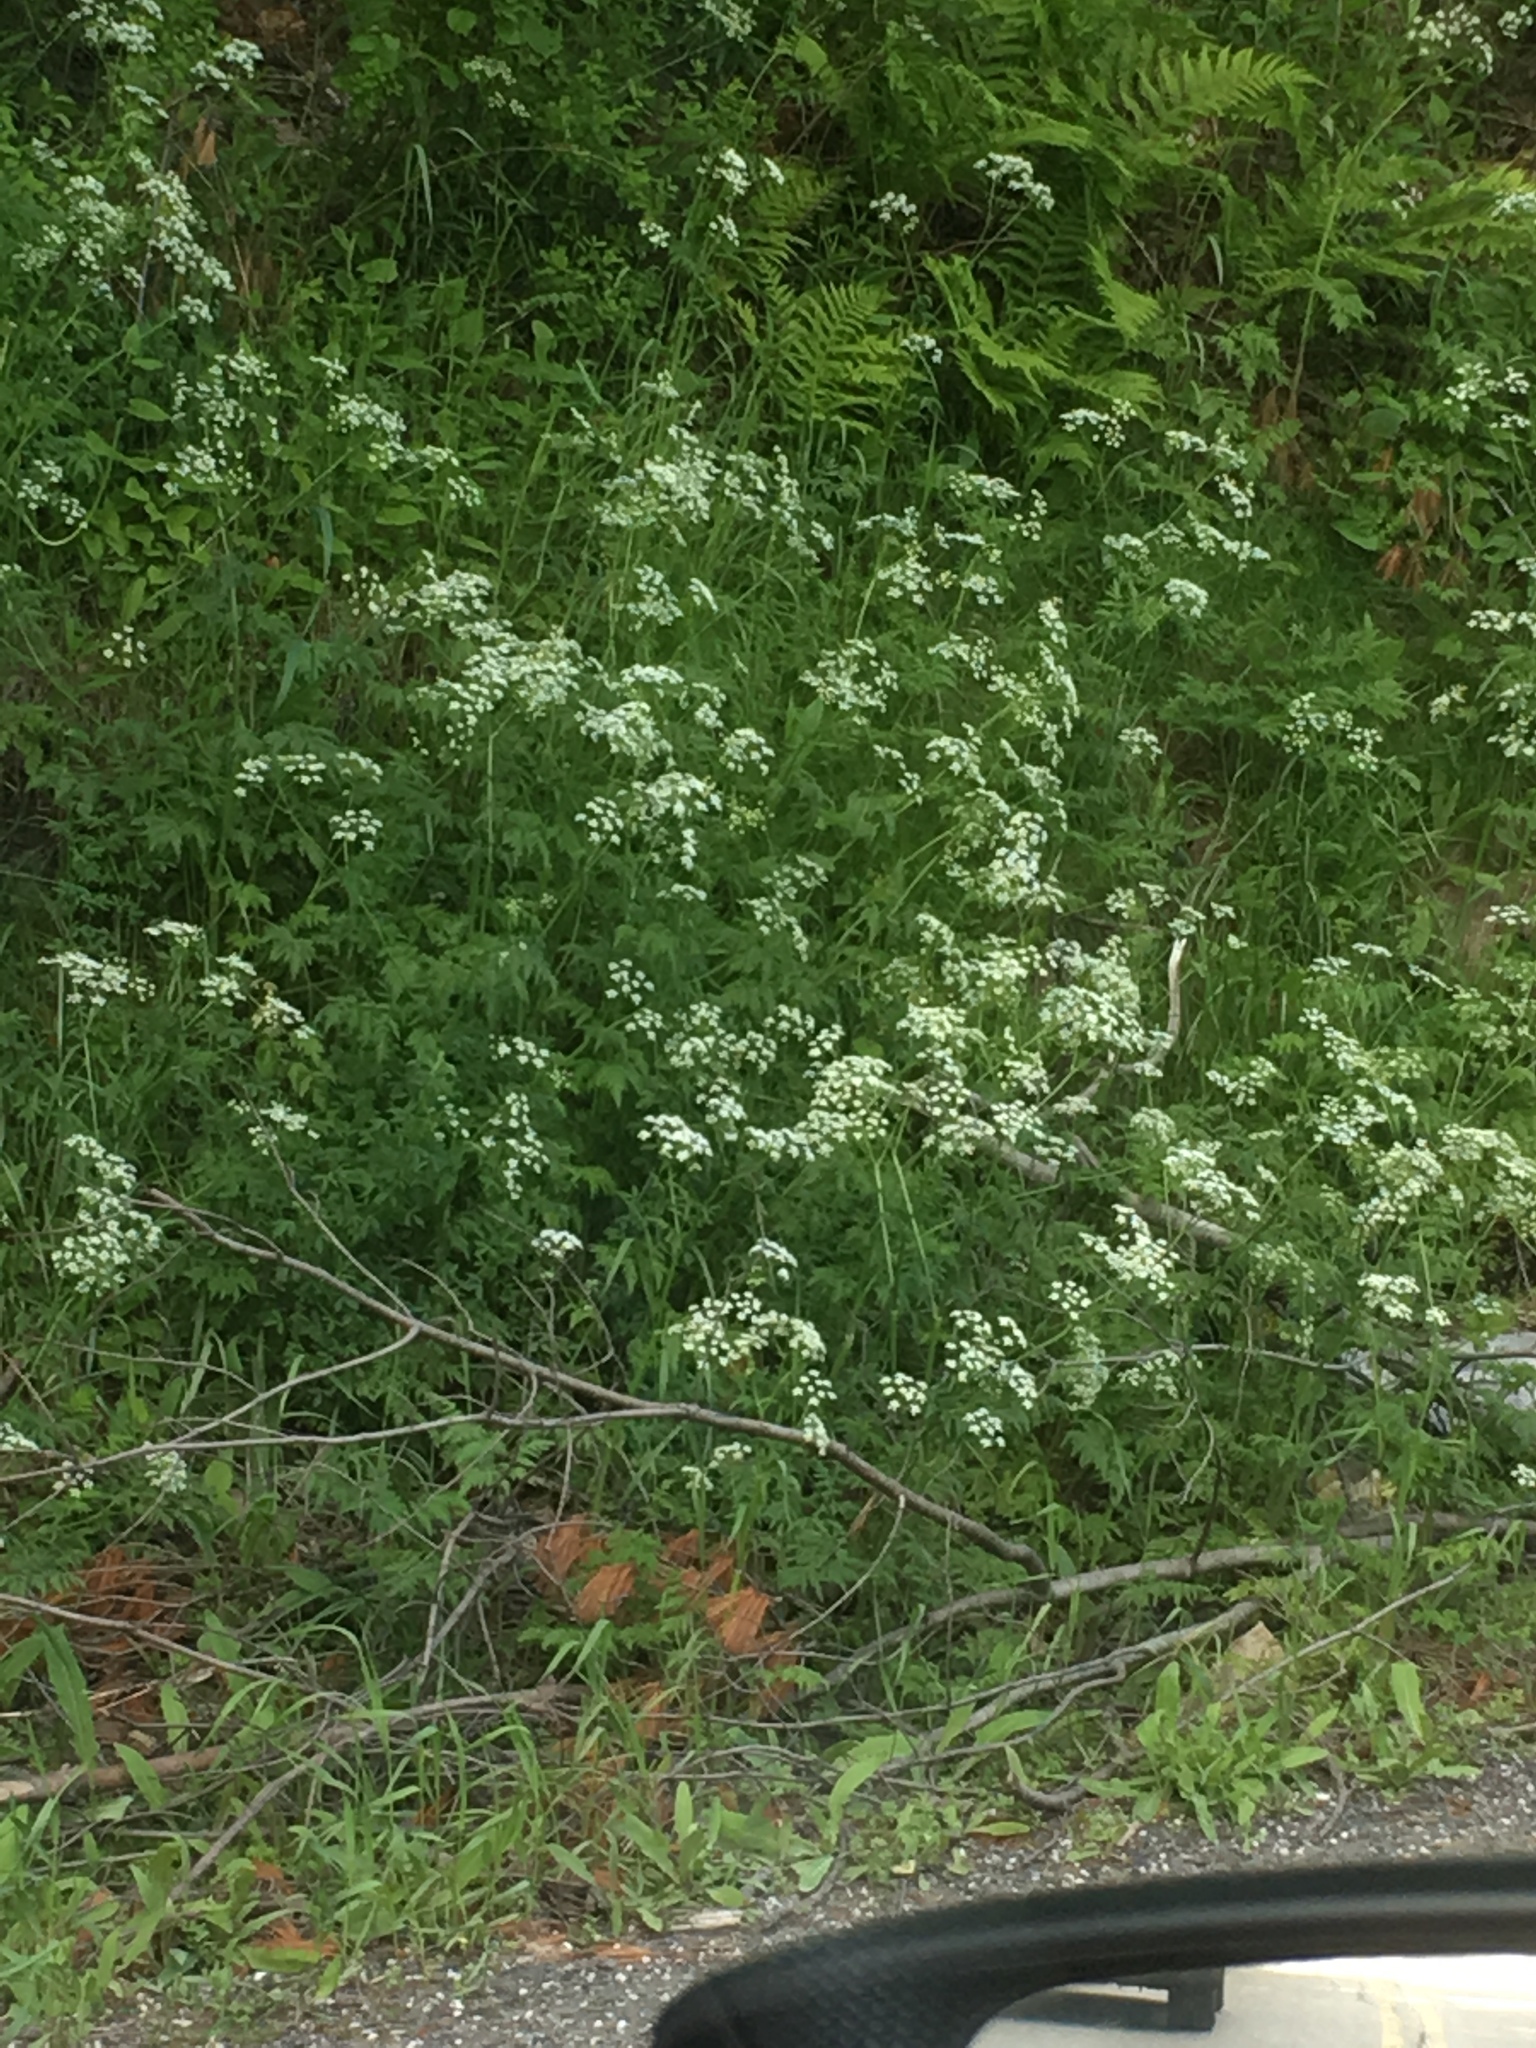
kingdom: Plantae
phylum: Tracheophyta
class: Magnoliopsida
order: Apiales
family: Apiaceae
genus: Anthriscus
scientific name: Anthriscus sylvestris
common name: Cow parsley
